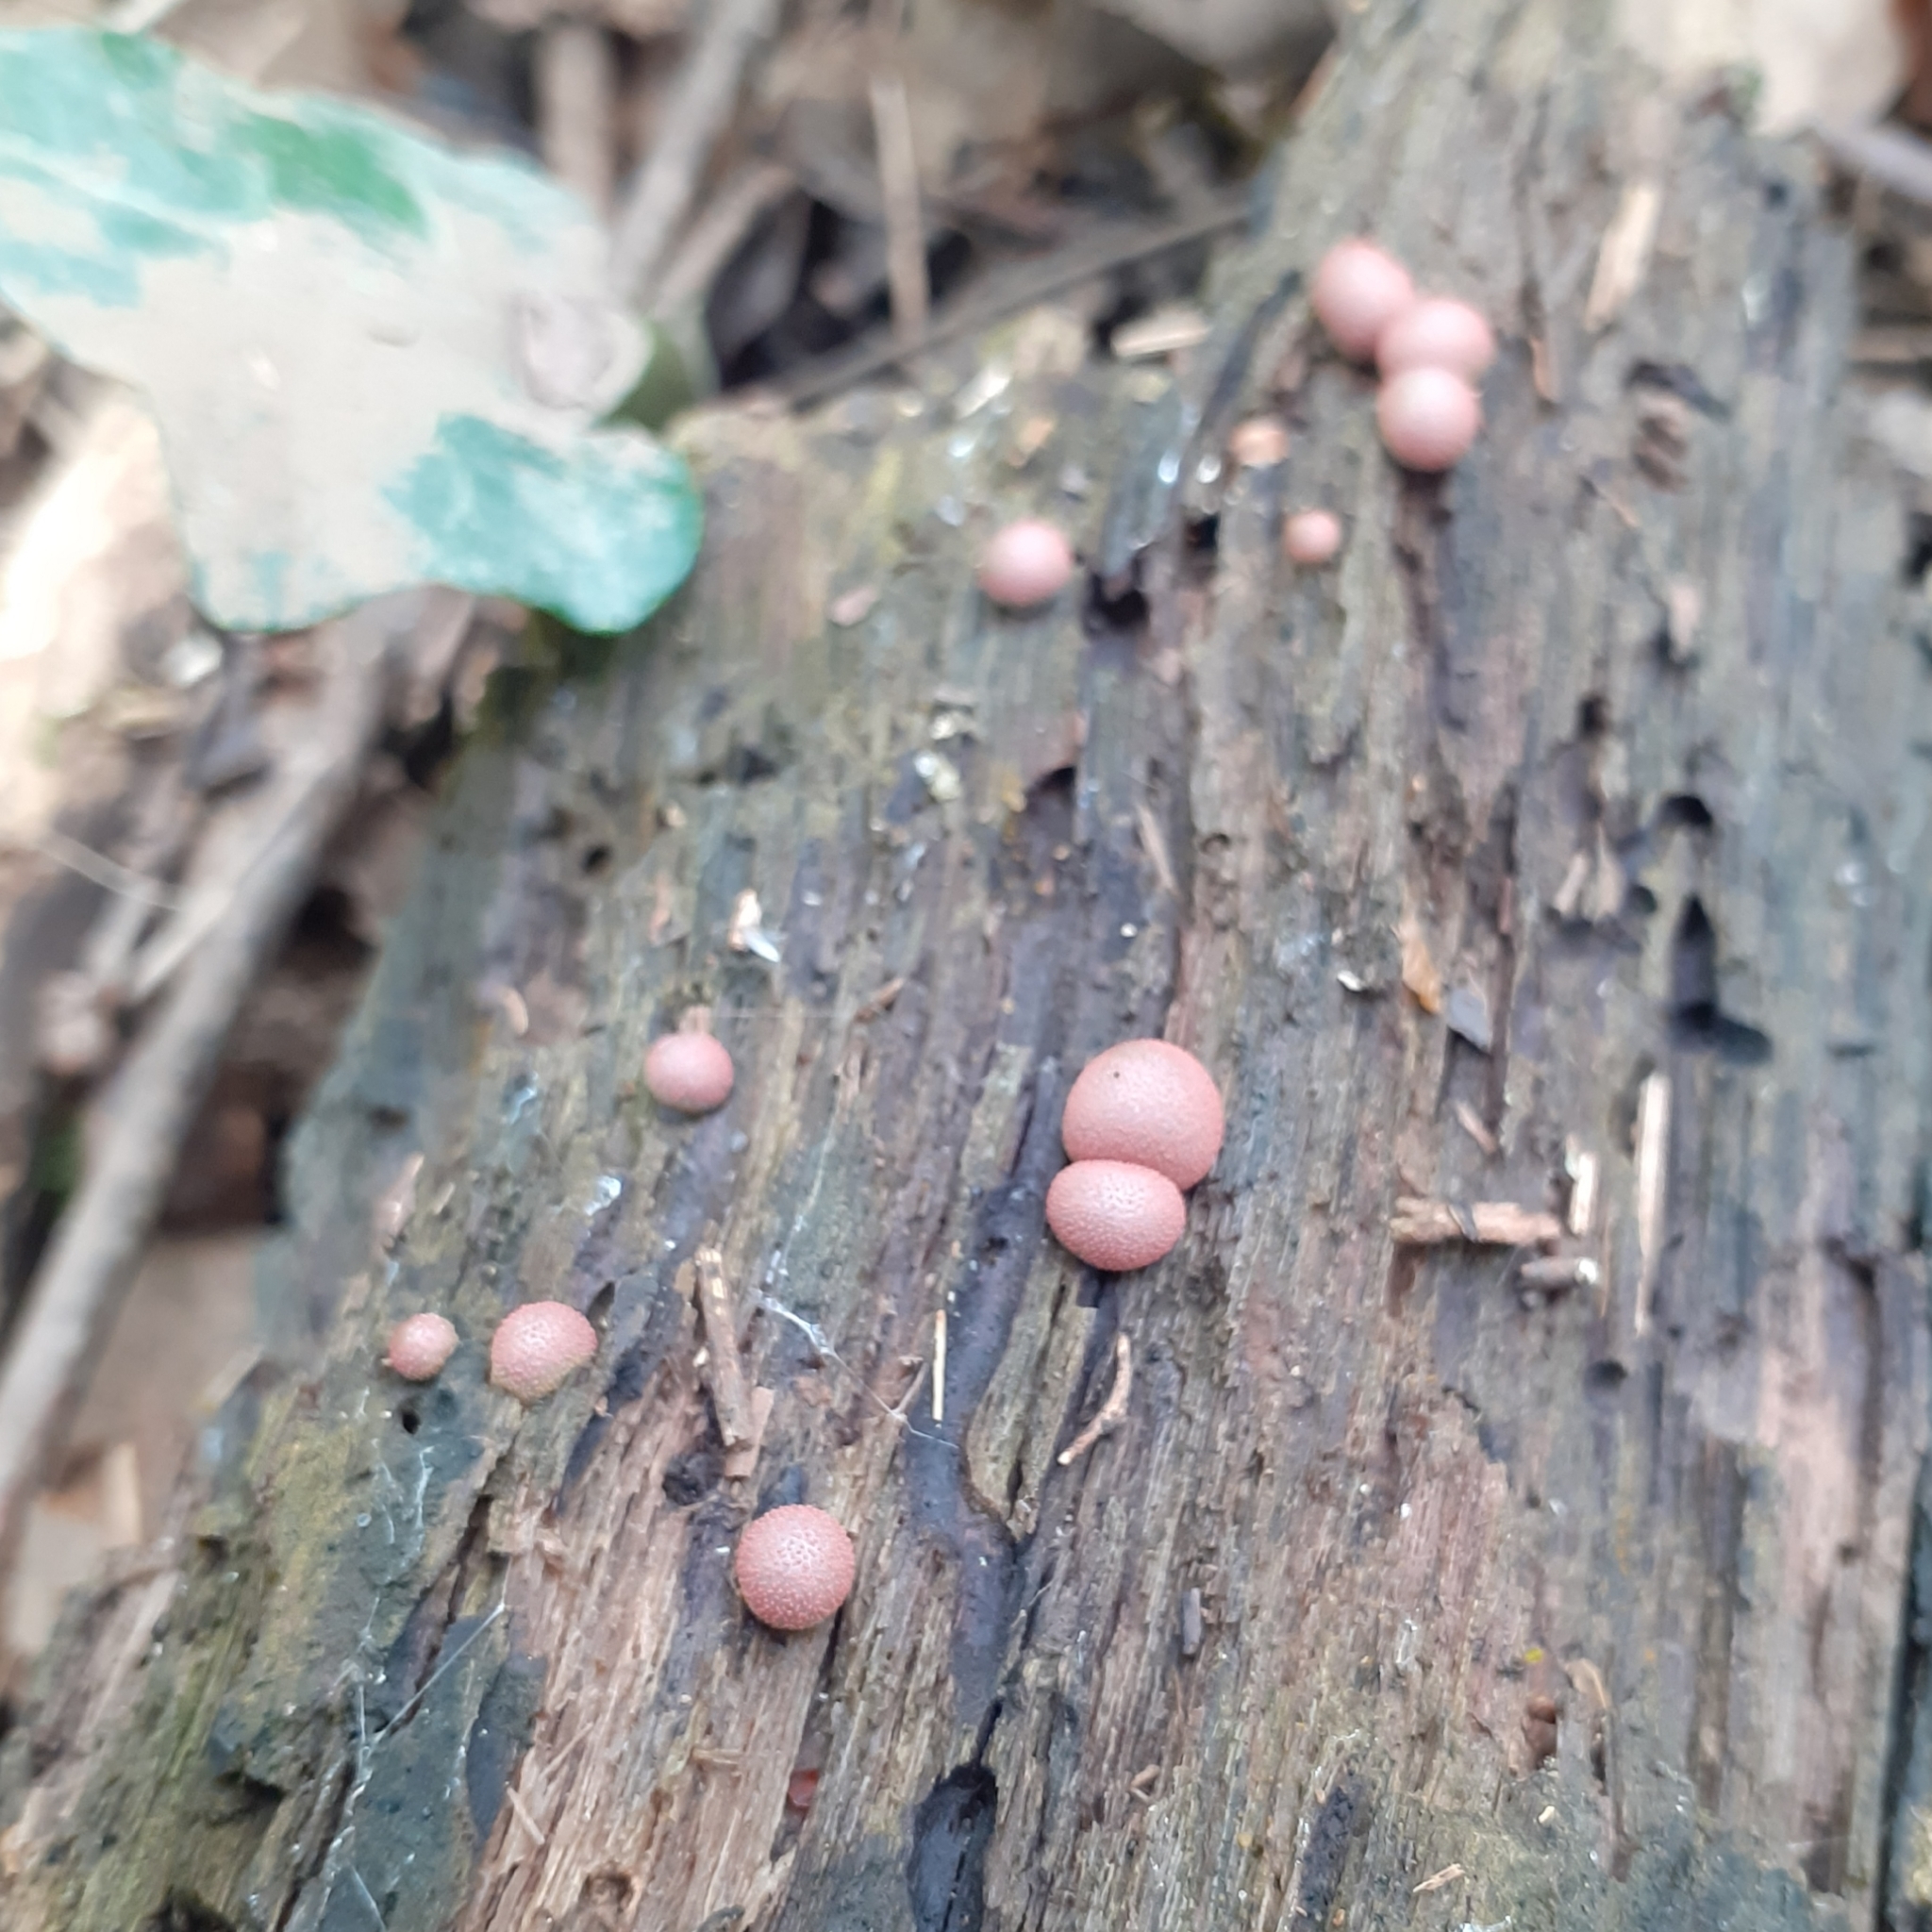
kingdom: Protozoa
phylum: Mycetozoa
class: Myxomycetes
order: Cribrariales
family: Tubiferaceae
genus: Lycogala
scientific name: Lycogala epidendrum
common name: Wolf's milk
